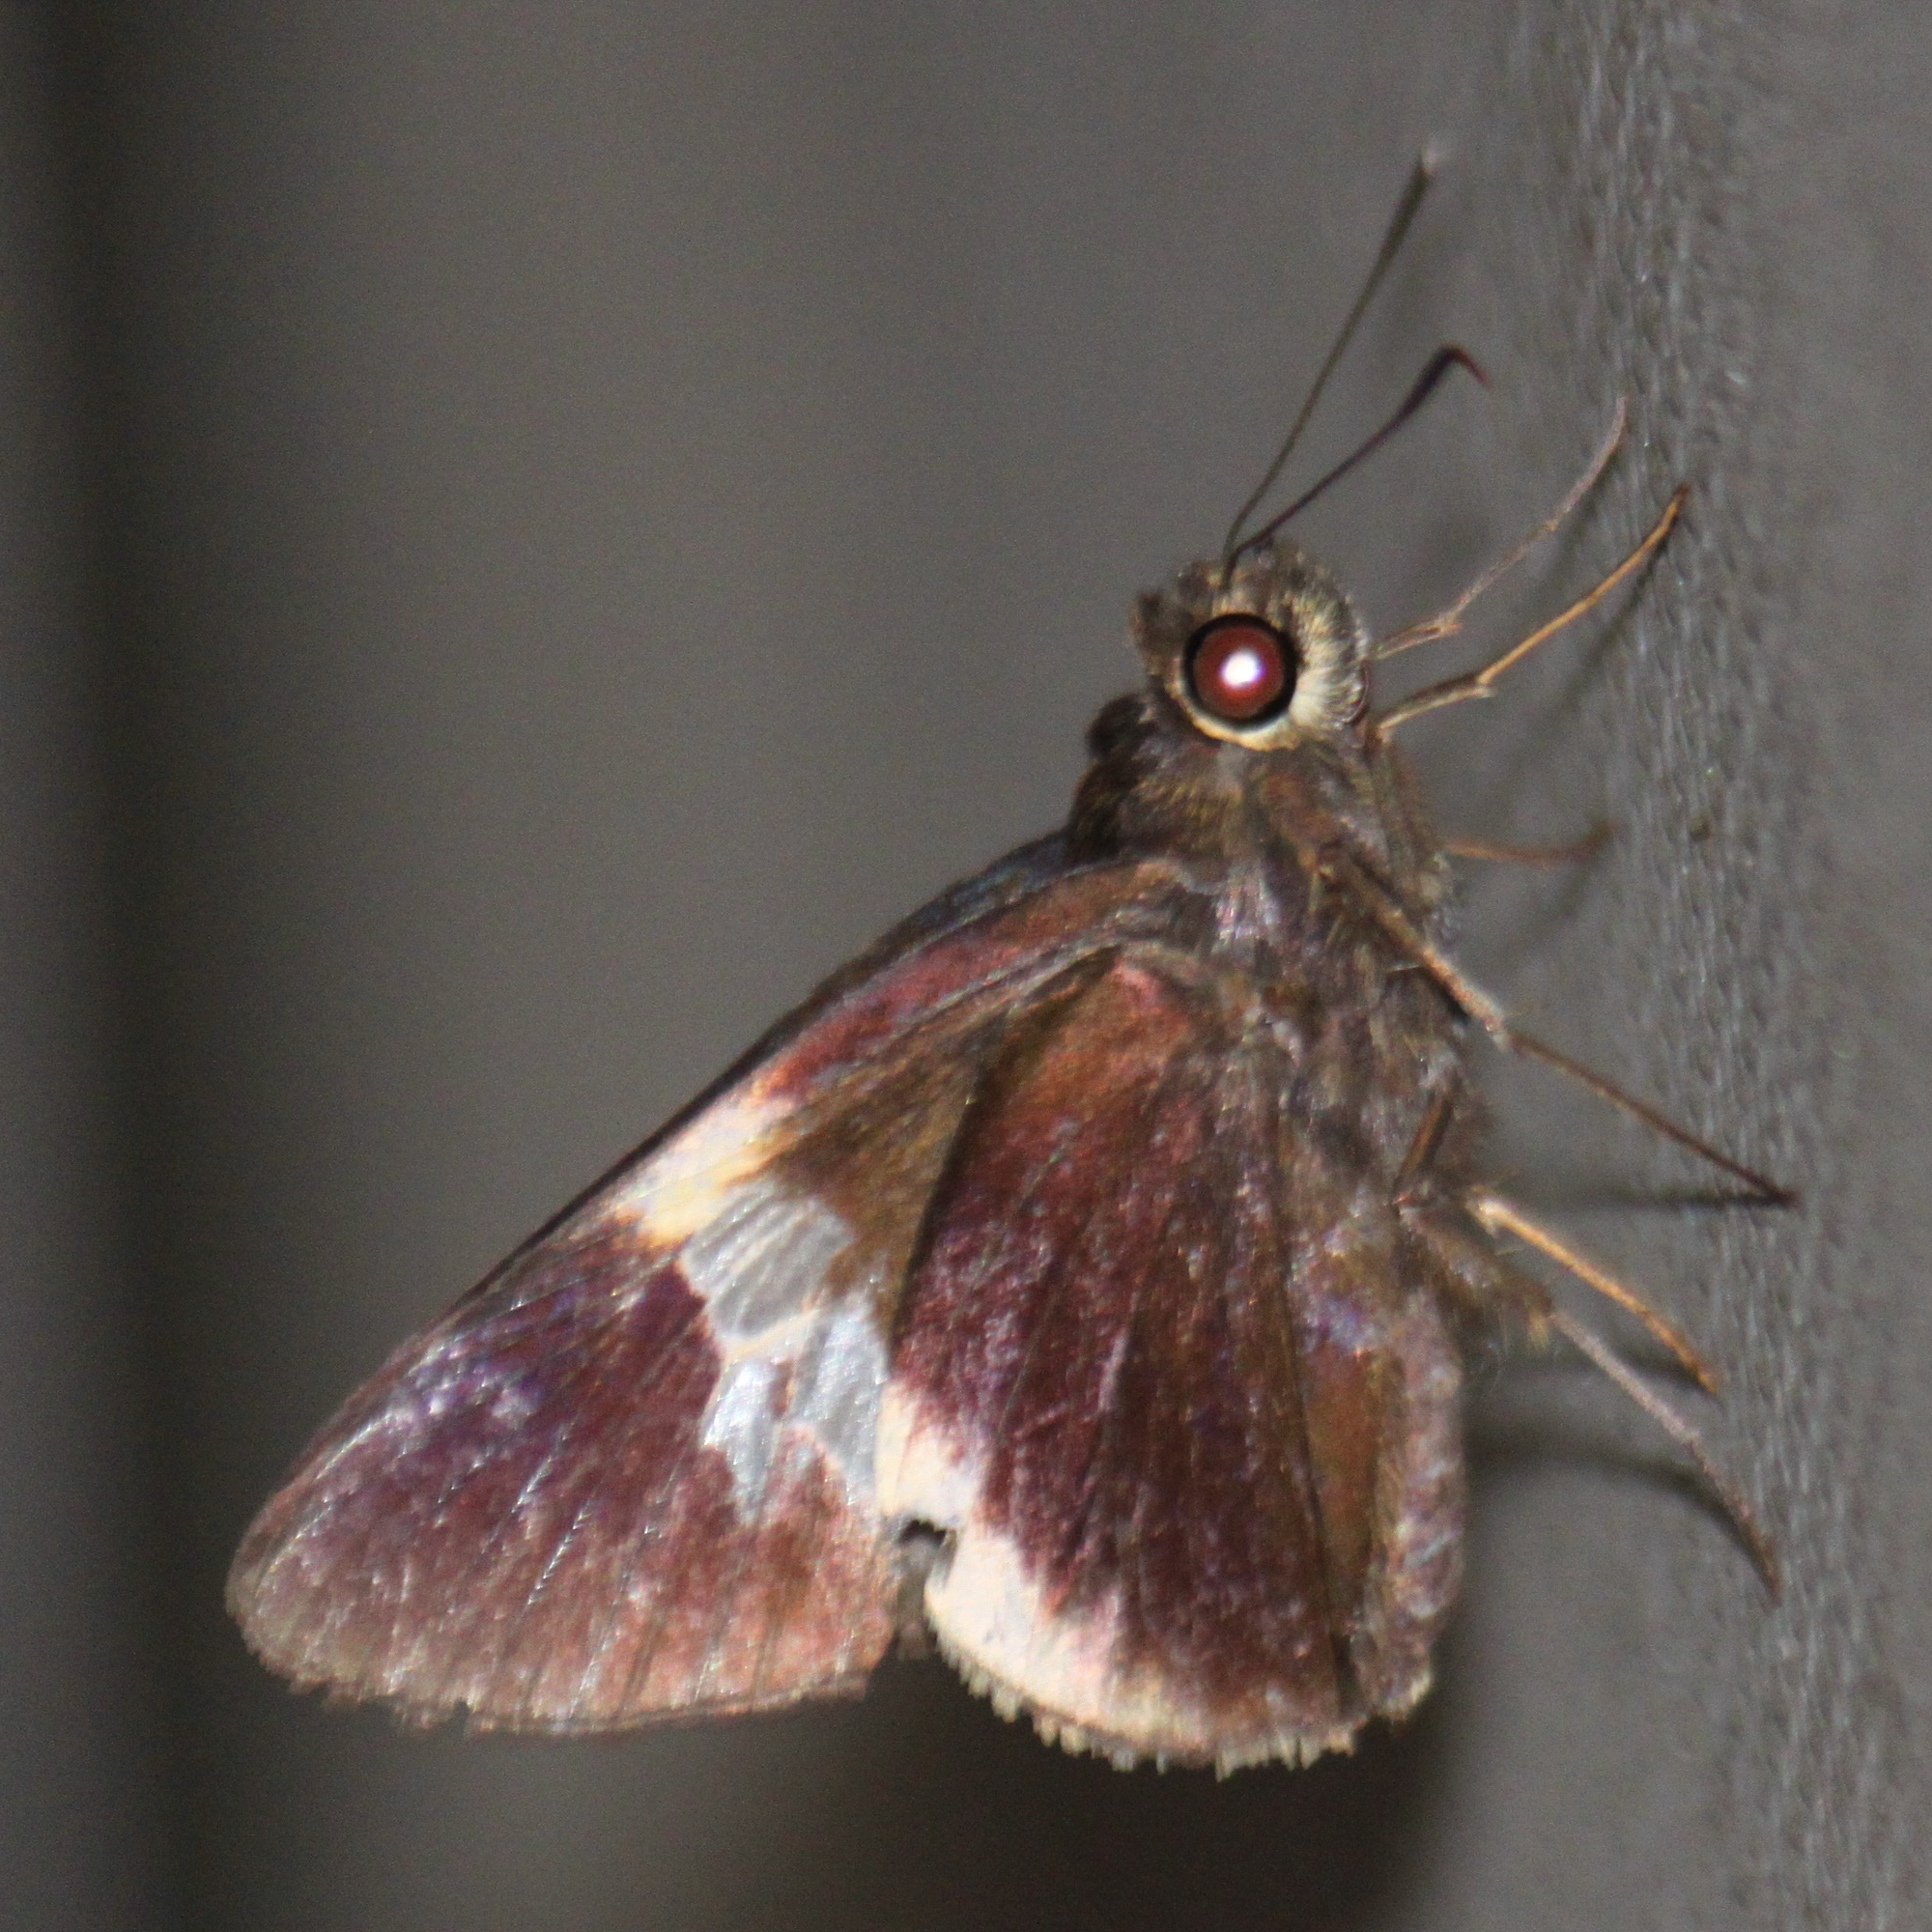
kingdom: Animalia
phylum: Arthropoda
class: Insecta
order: Lepidoptera
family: Hesperiidae
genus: Lotongus
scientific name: Lotongus calathus
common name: White-tipped palmer
